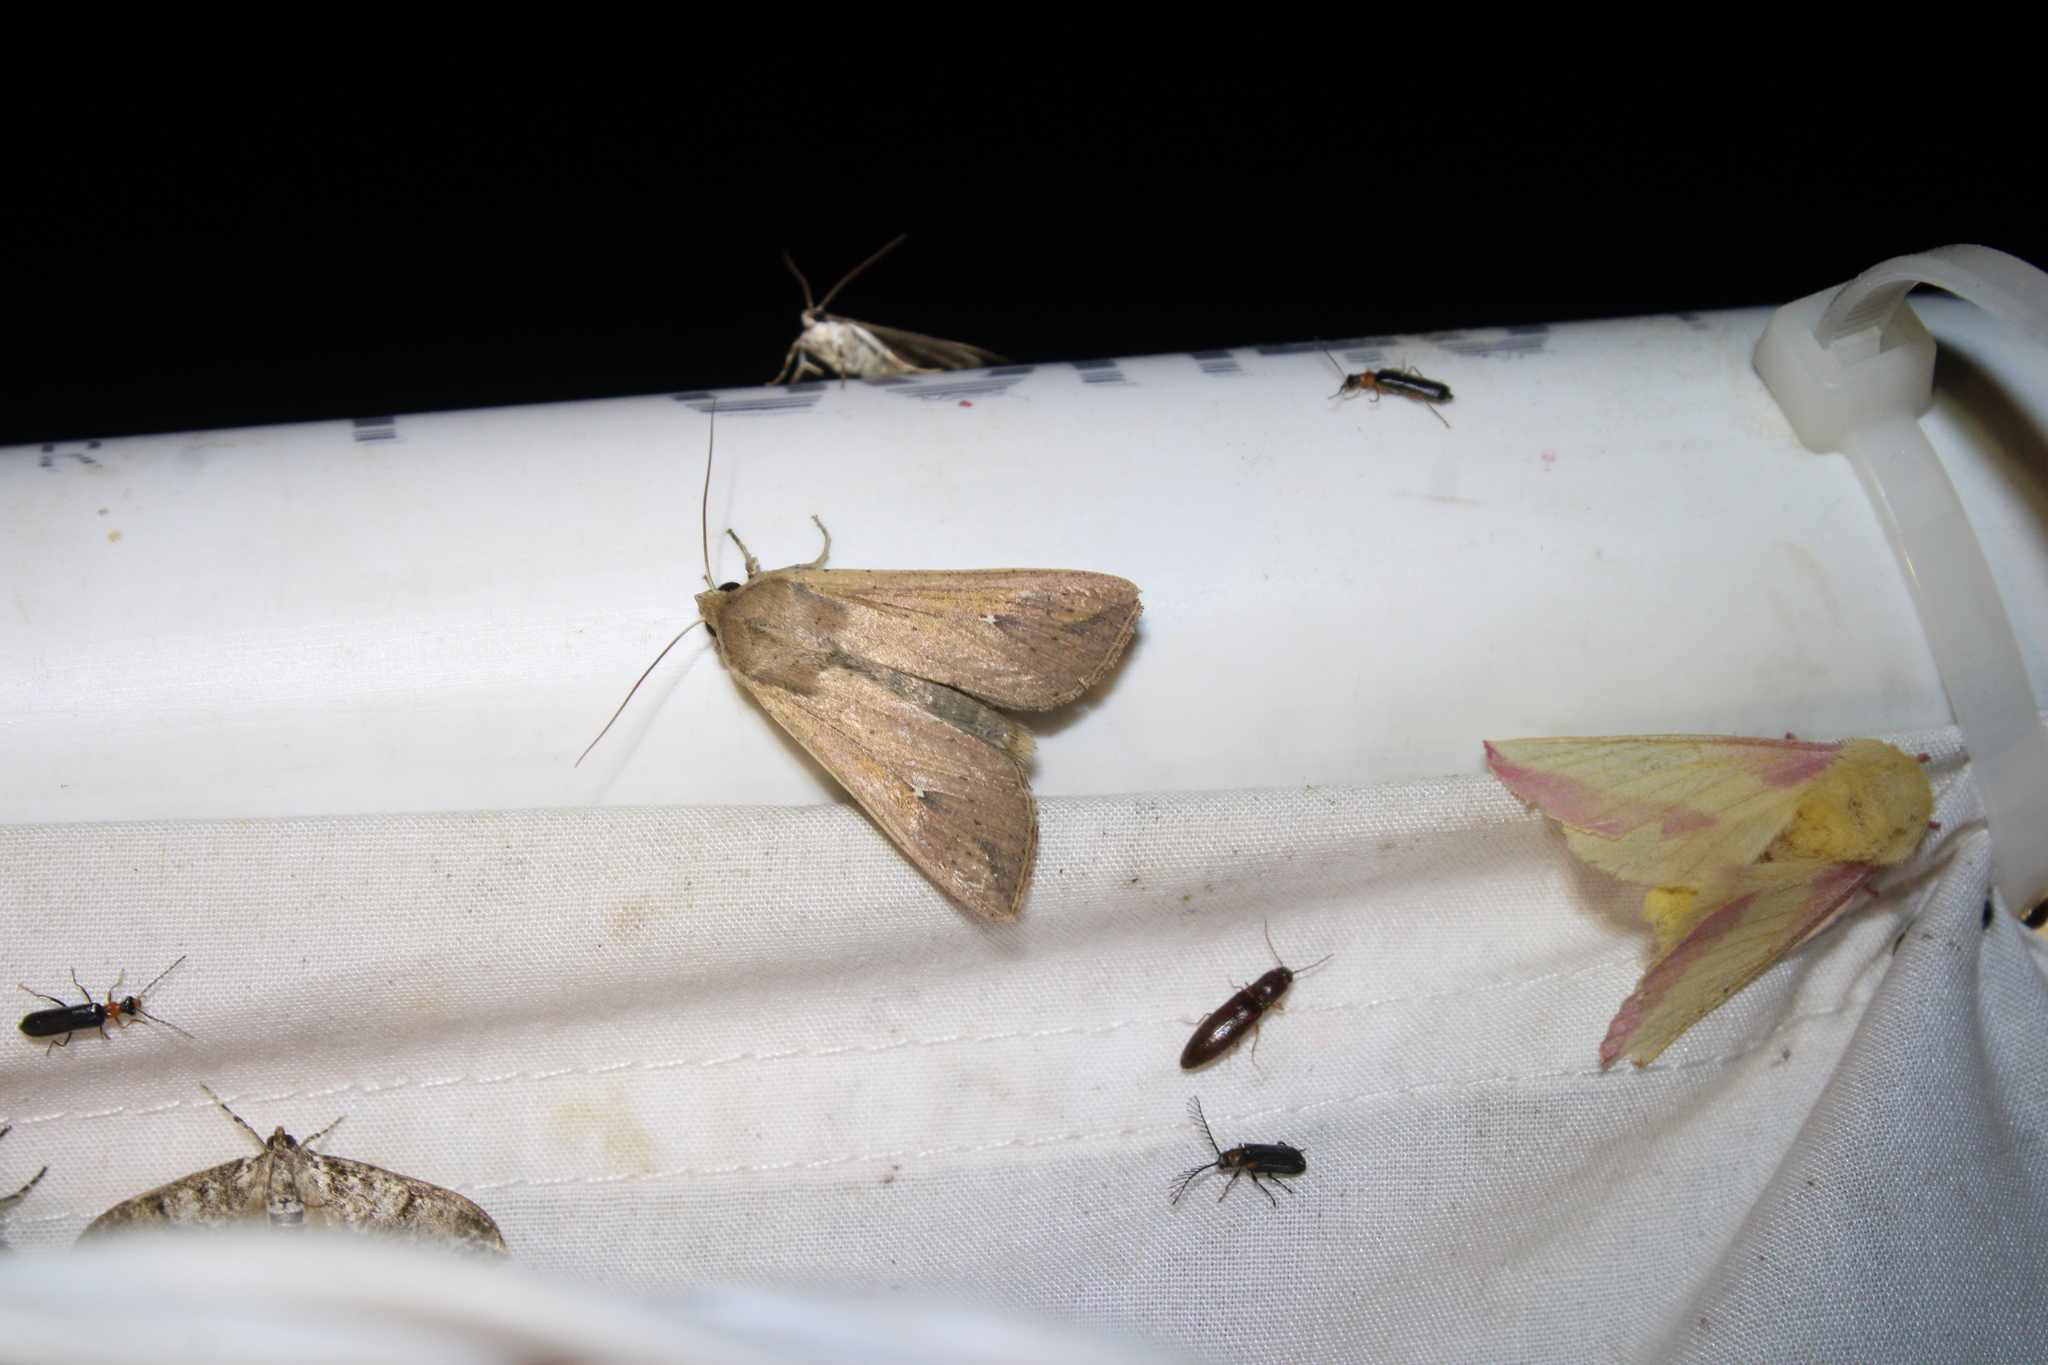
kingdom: Animalia
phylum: Arthropoda
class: Insecta
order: Lepidoptera
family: Noctuidae
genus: Mythimna
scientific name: Mythimna unipuncta
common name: White-speck
